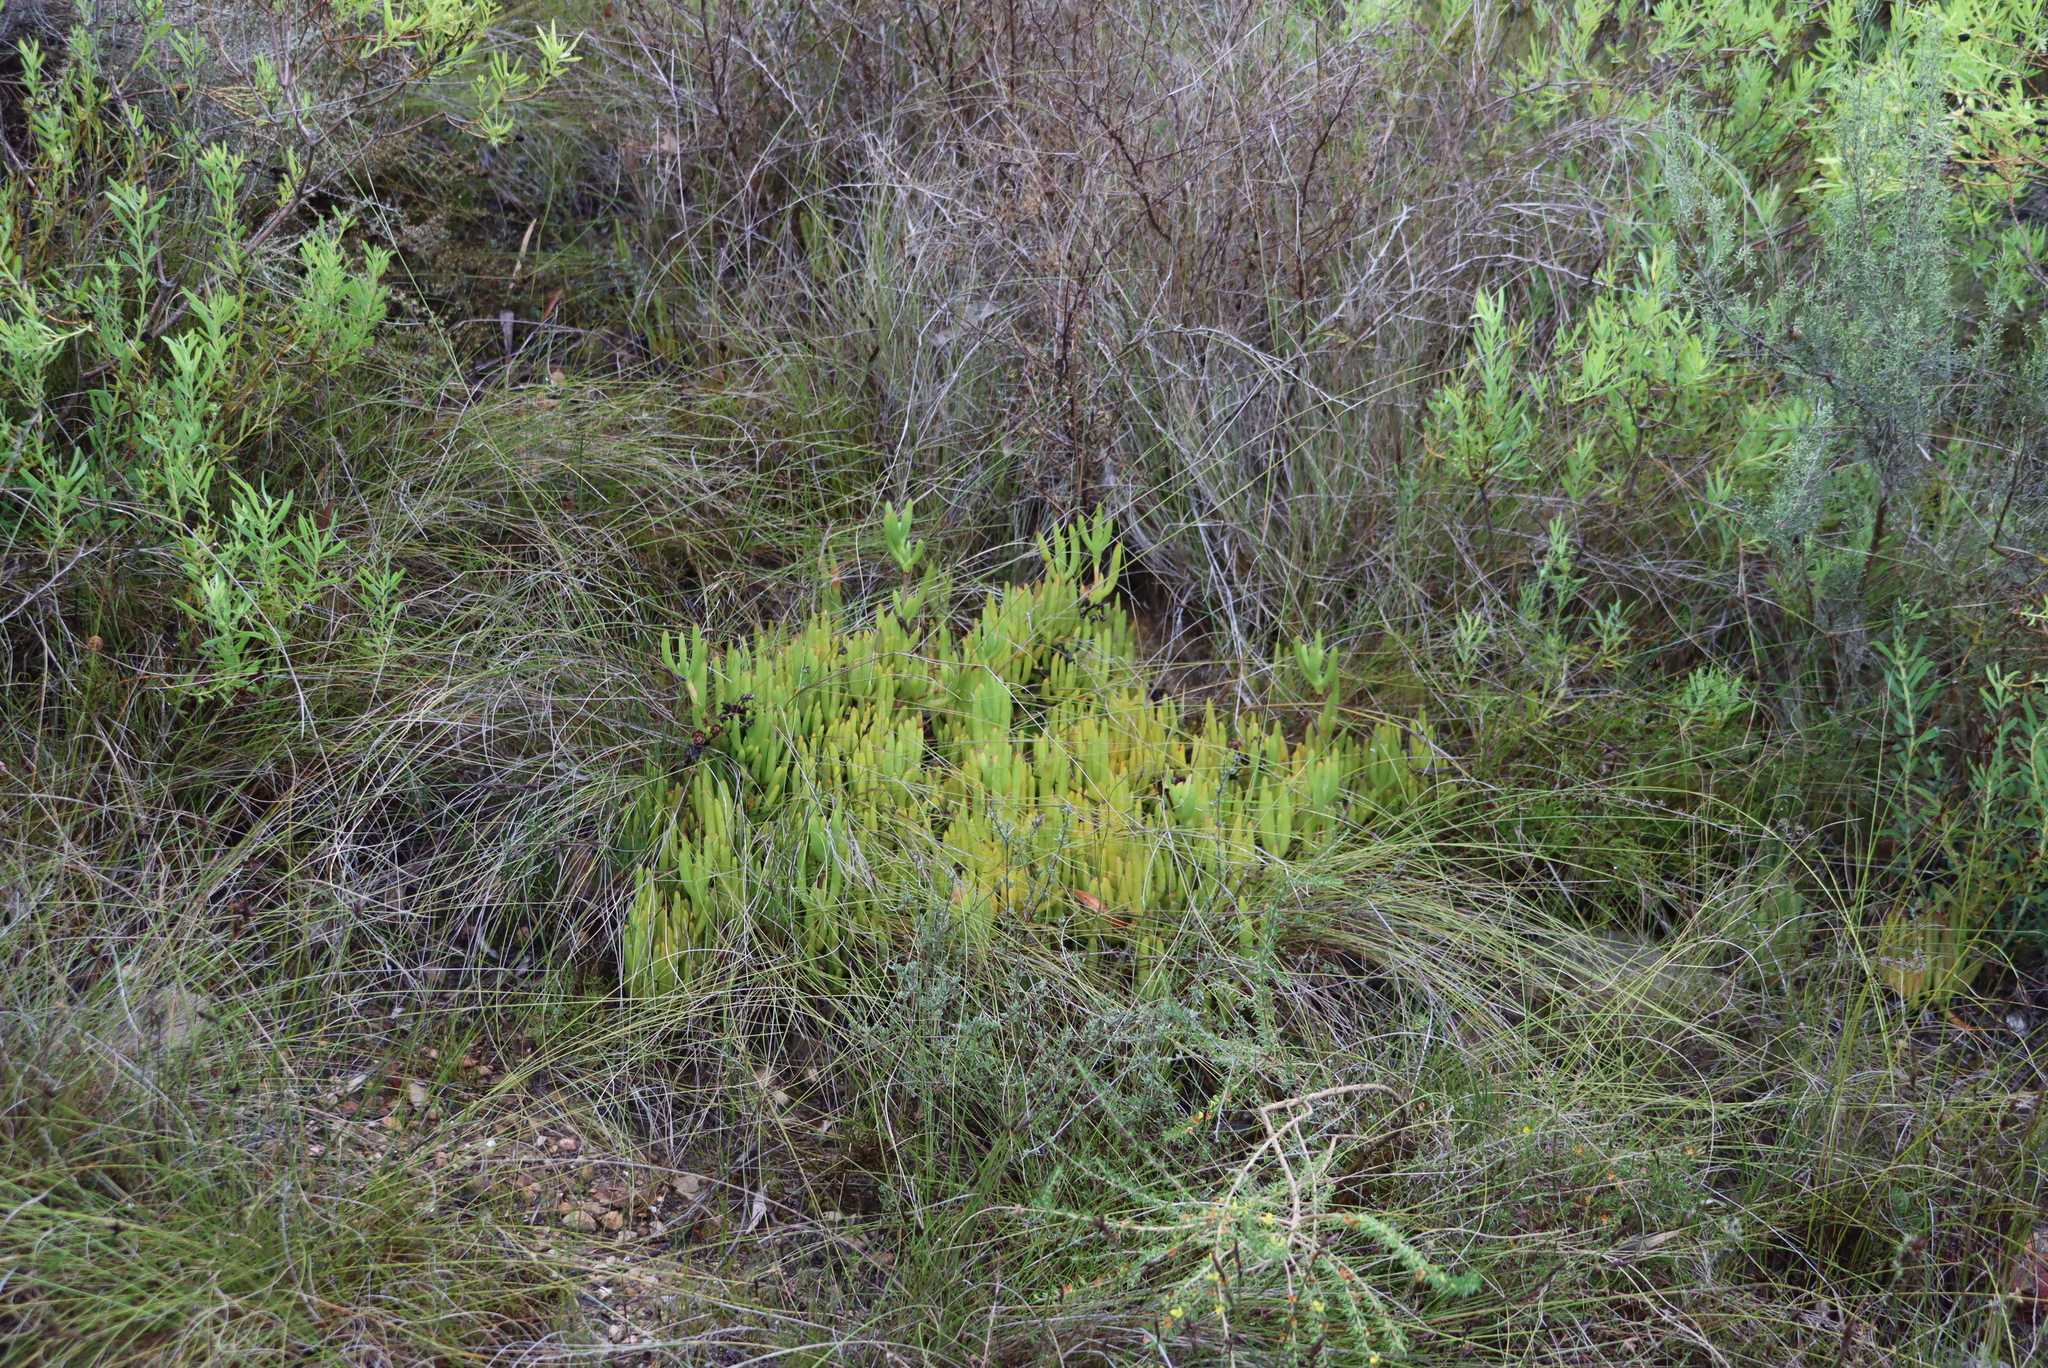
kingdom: Plantae
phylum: Tracheophyta
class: Magnoliopsida
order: Caryophyllales
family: Aizoaceae
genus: Ruschia
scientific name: Ruschia schollii
